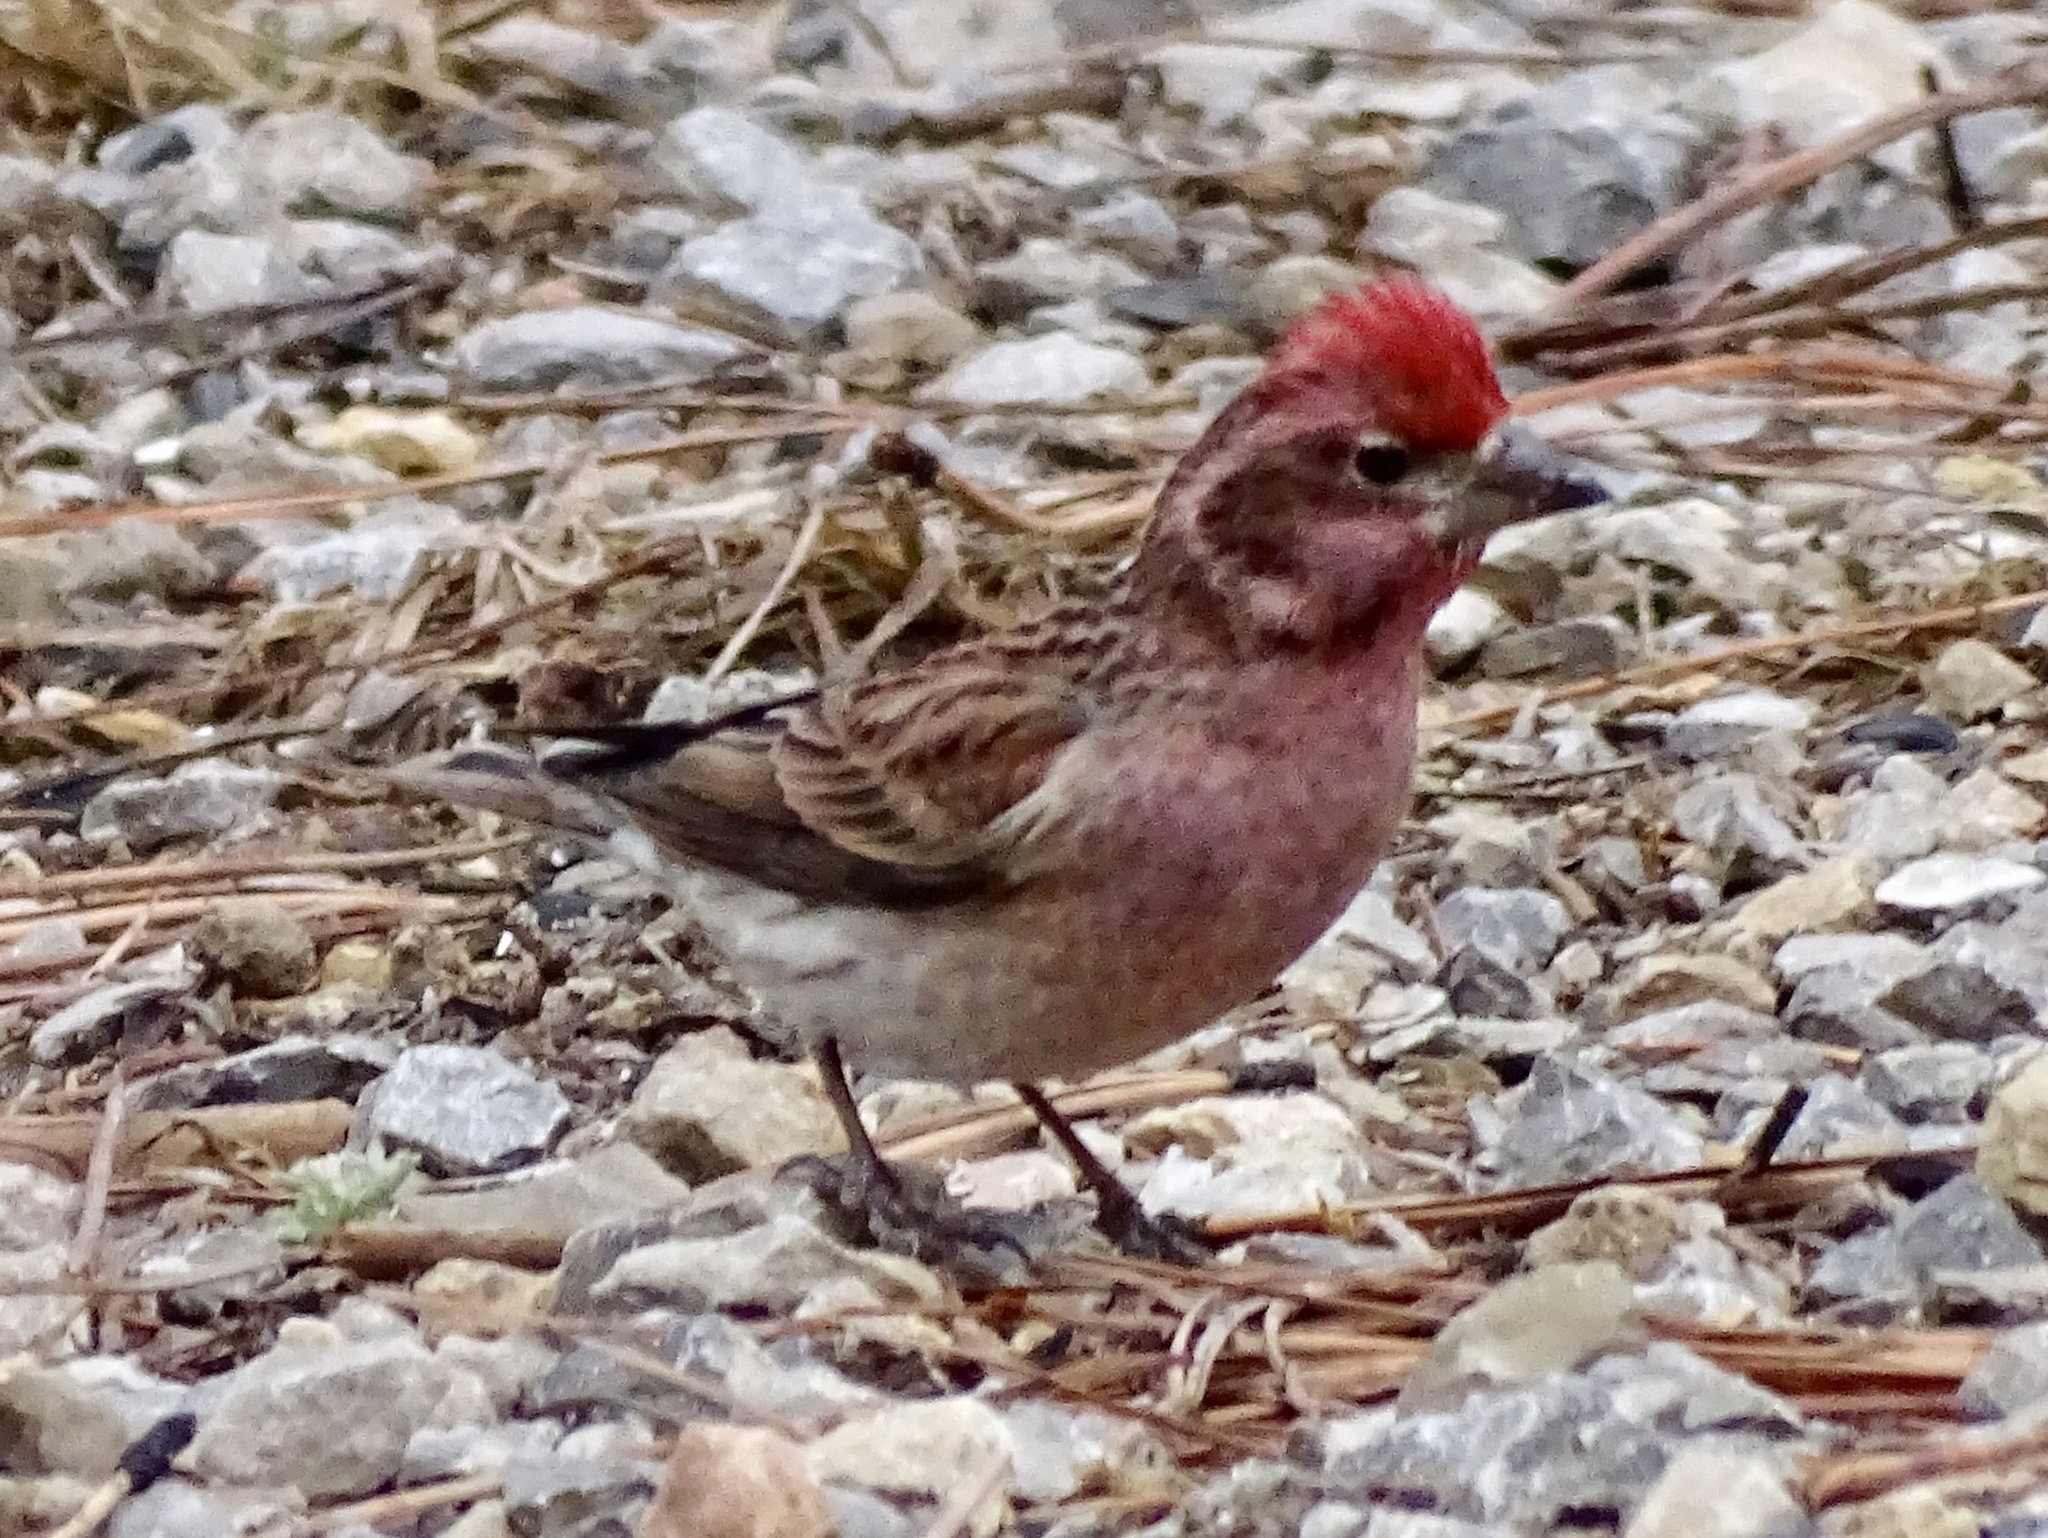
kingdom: Animalia
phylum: Chordata
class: Aves
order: Passeriformes
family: Fringillidae
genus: Haemorhous
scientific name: Haemorhous cassinii
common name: Cassin's finch
